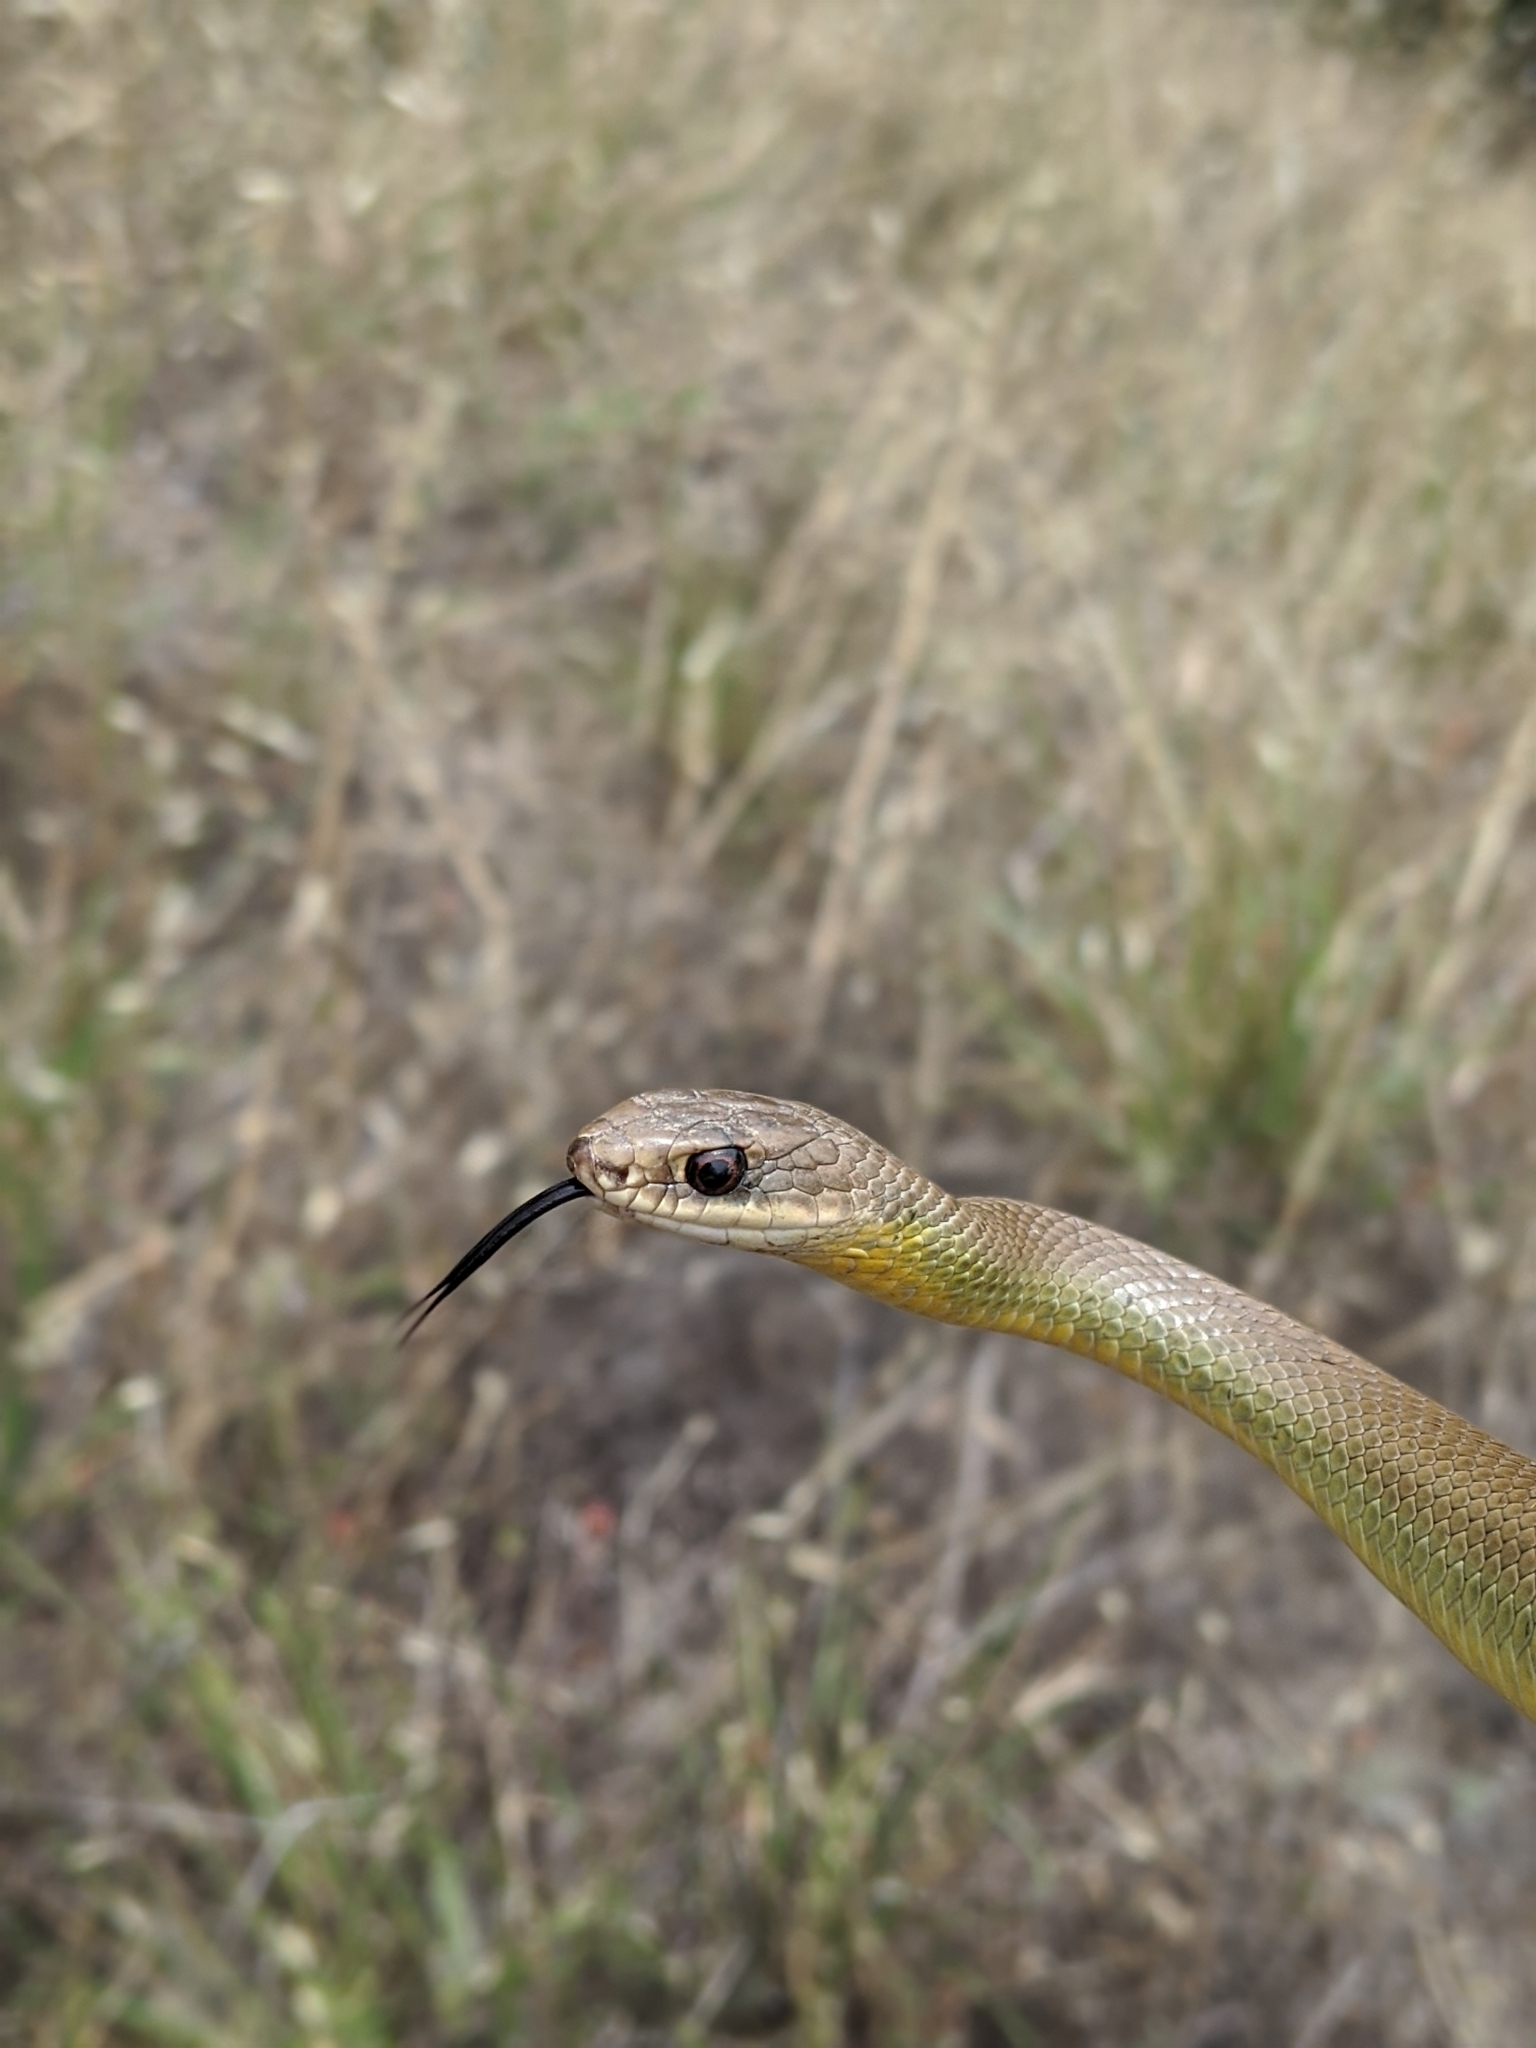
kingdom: Animalia
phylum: Chordata
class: Squamata
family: Colubridae
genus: Coluber
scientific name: Coluber constrictor
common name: Eastern racer
